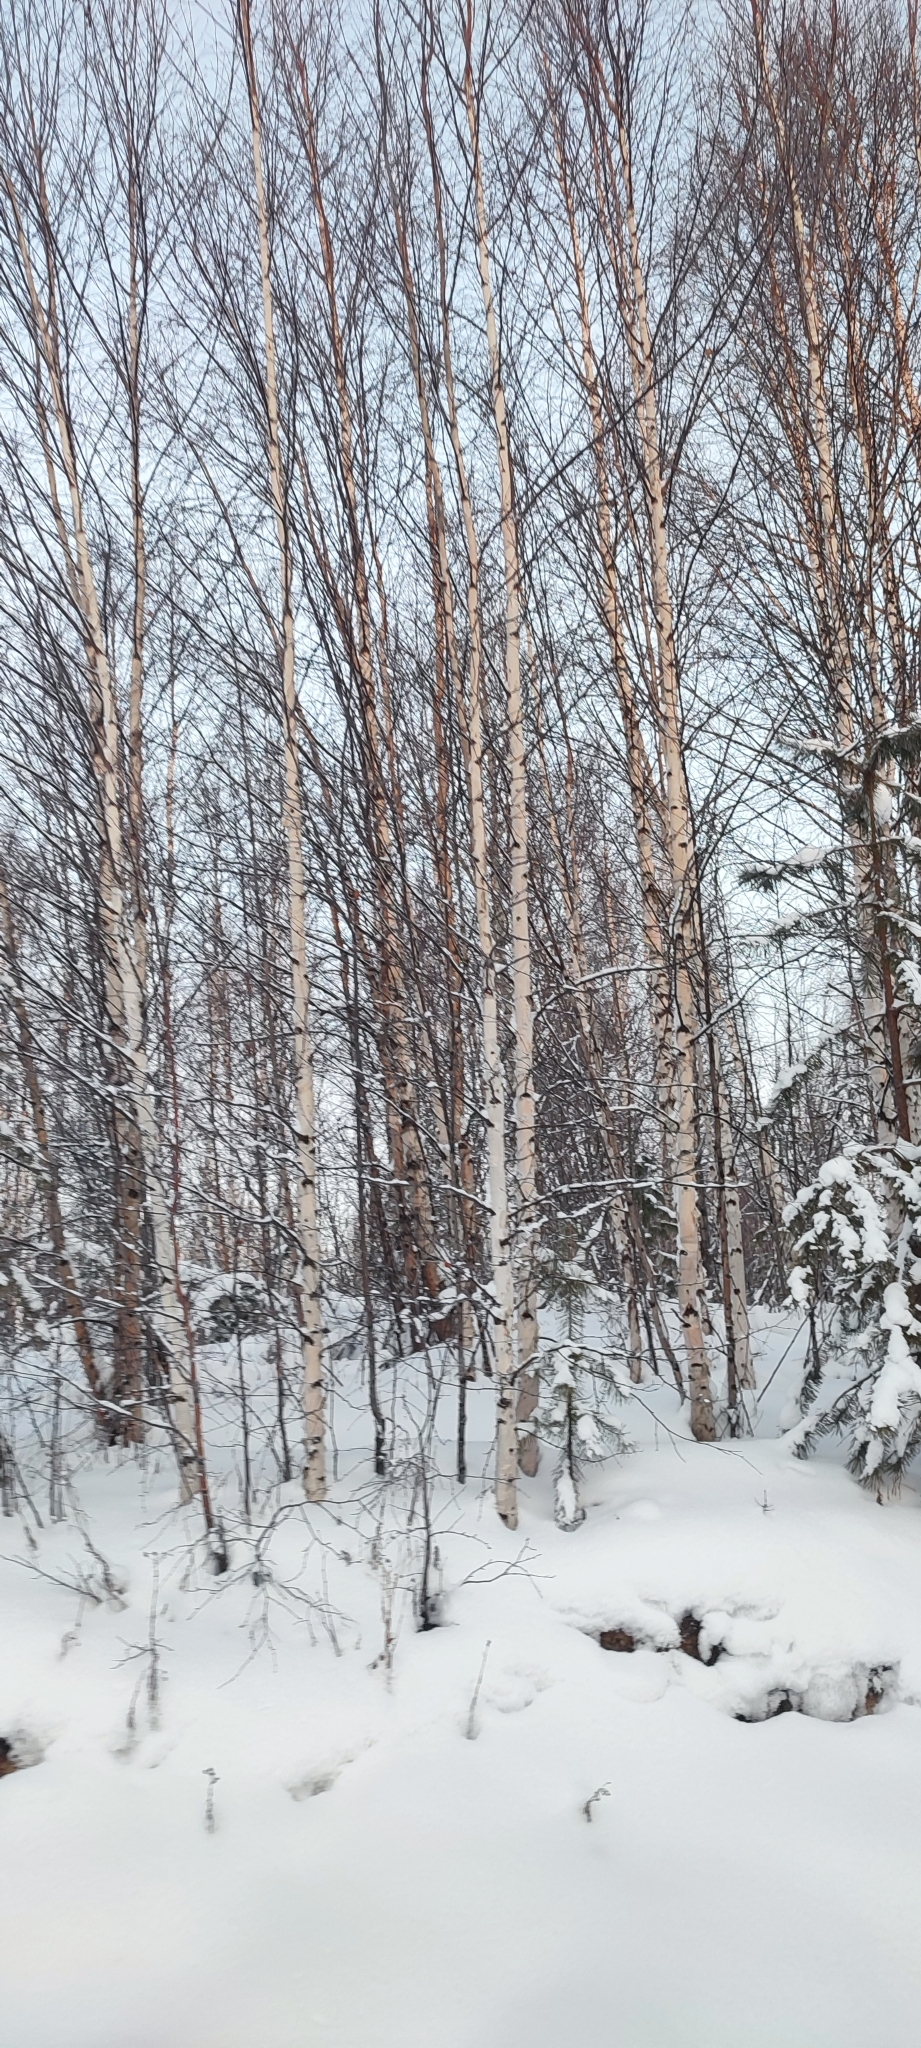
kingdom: Plantae
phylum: Tracheophyta
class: Magnoliopsida
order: Fagales
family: Betulaceae
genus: Betula
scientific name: Betula pubescens
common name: Downy birch
